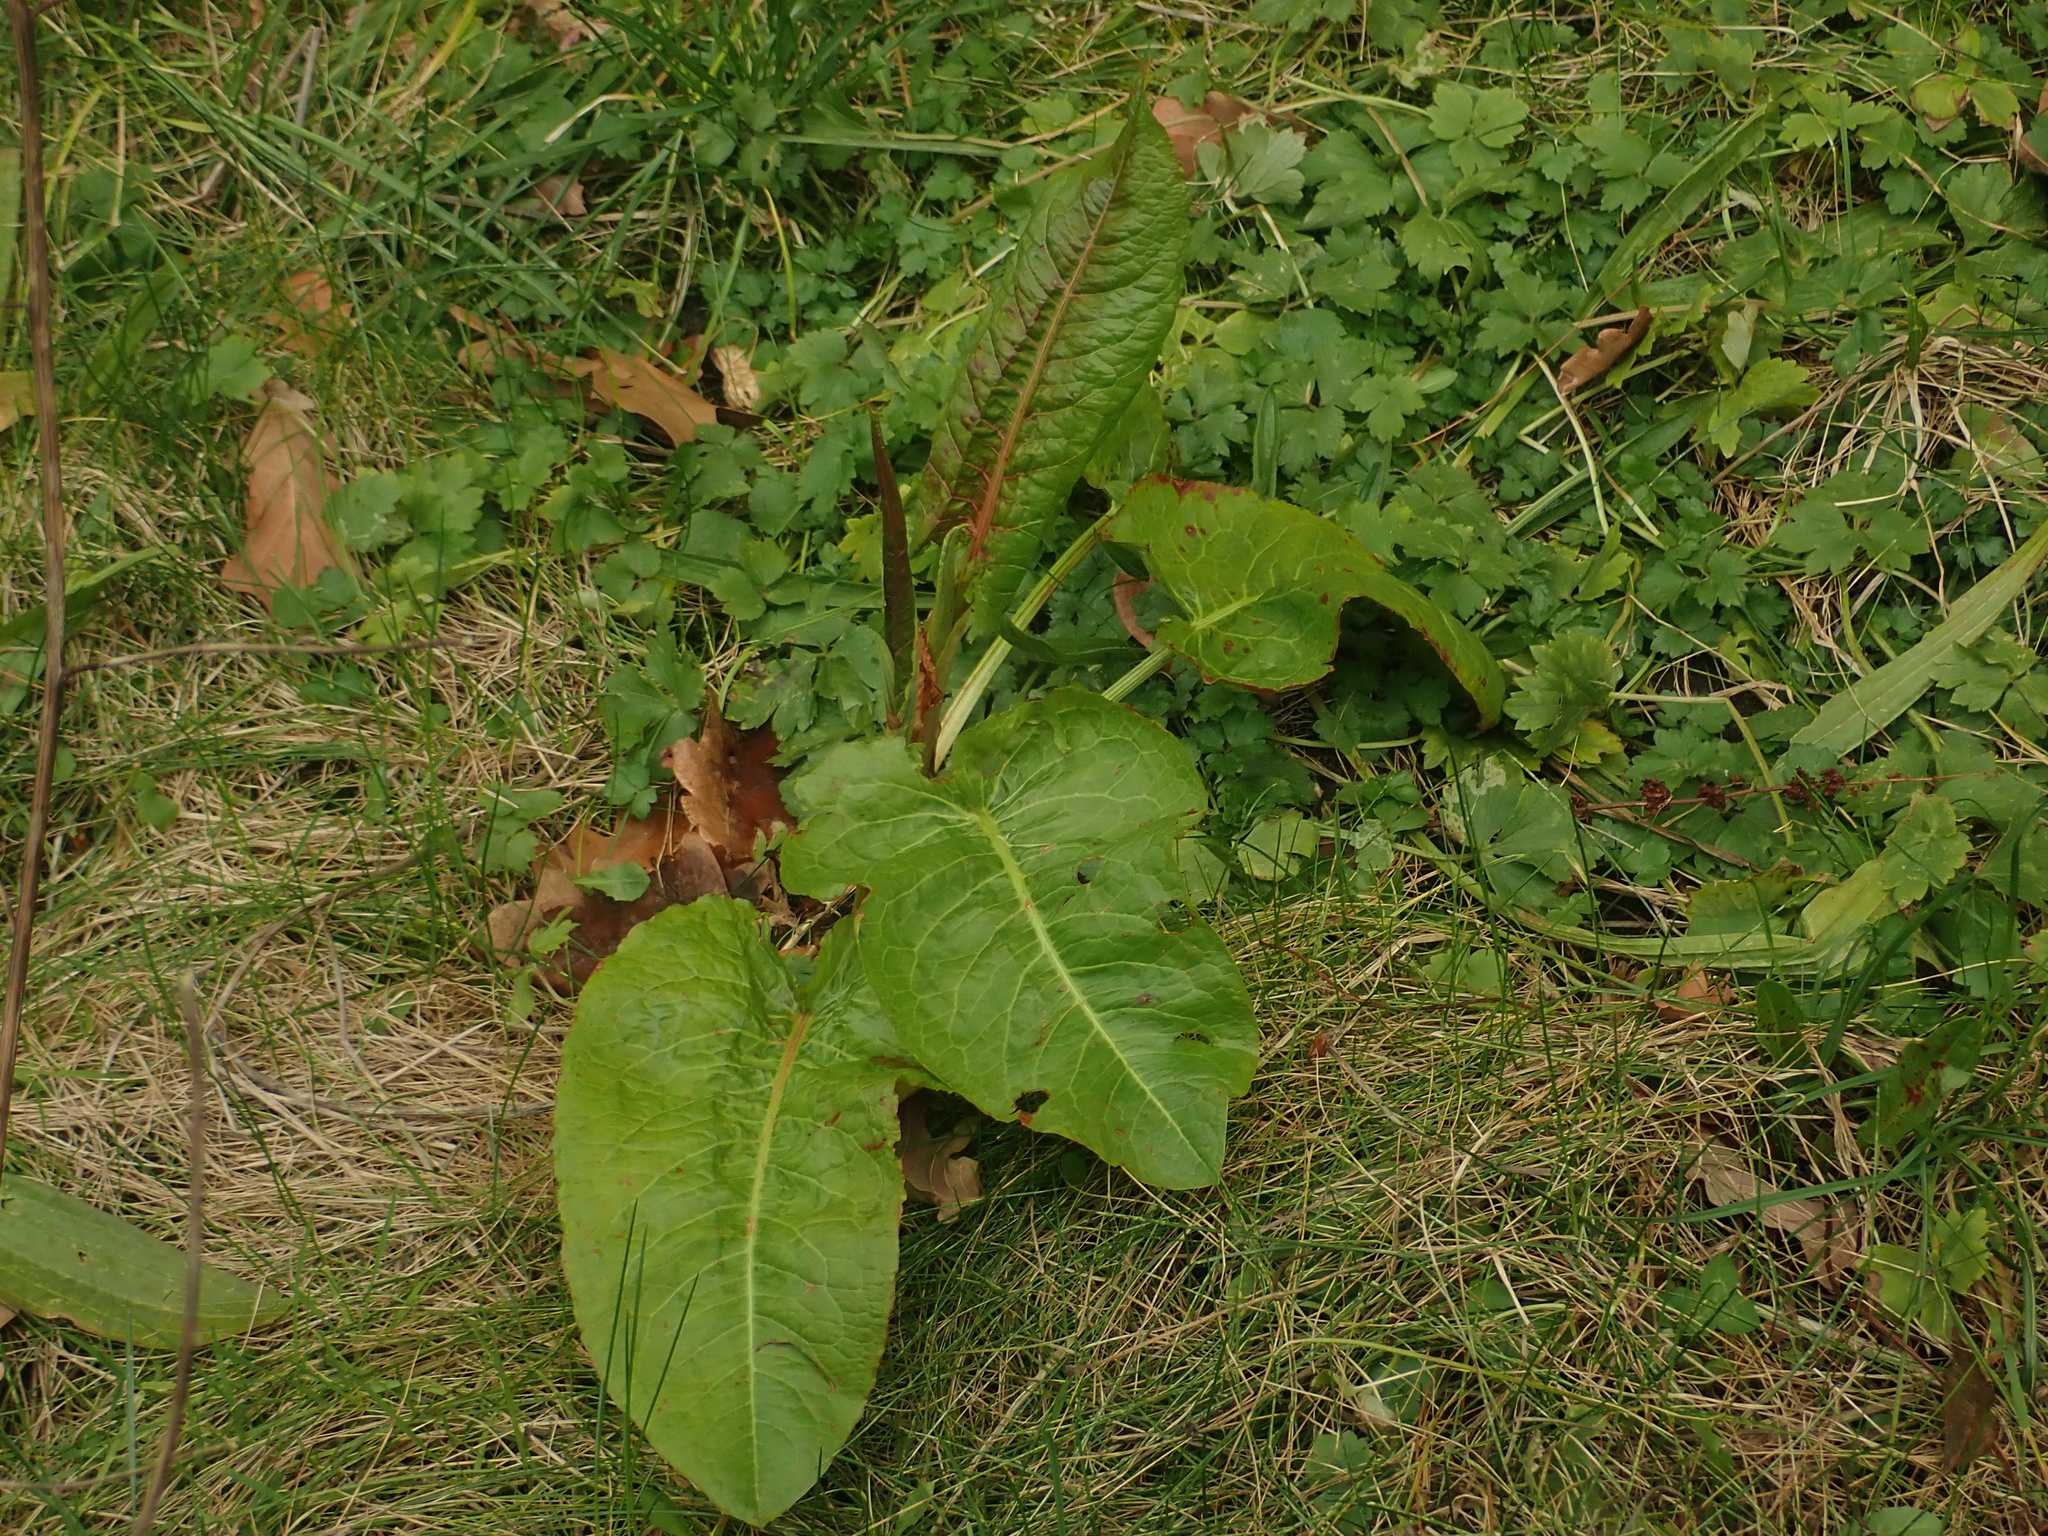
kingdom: Plantae
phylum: Tracheophyta
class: Magnoliopsida
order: Caryophyllales
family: Polygonaceae
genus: Rumex
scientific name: Rumex obtusifolius
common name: Bitter dock
